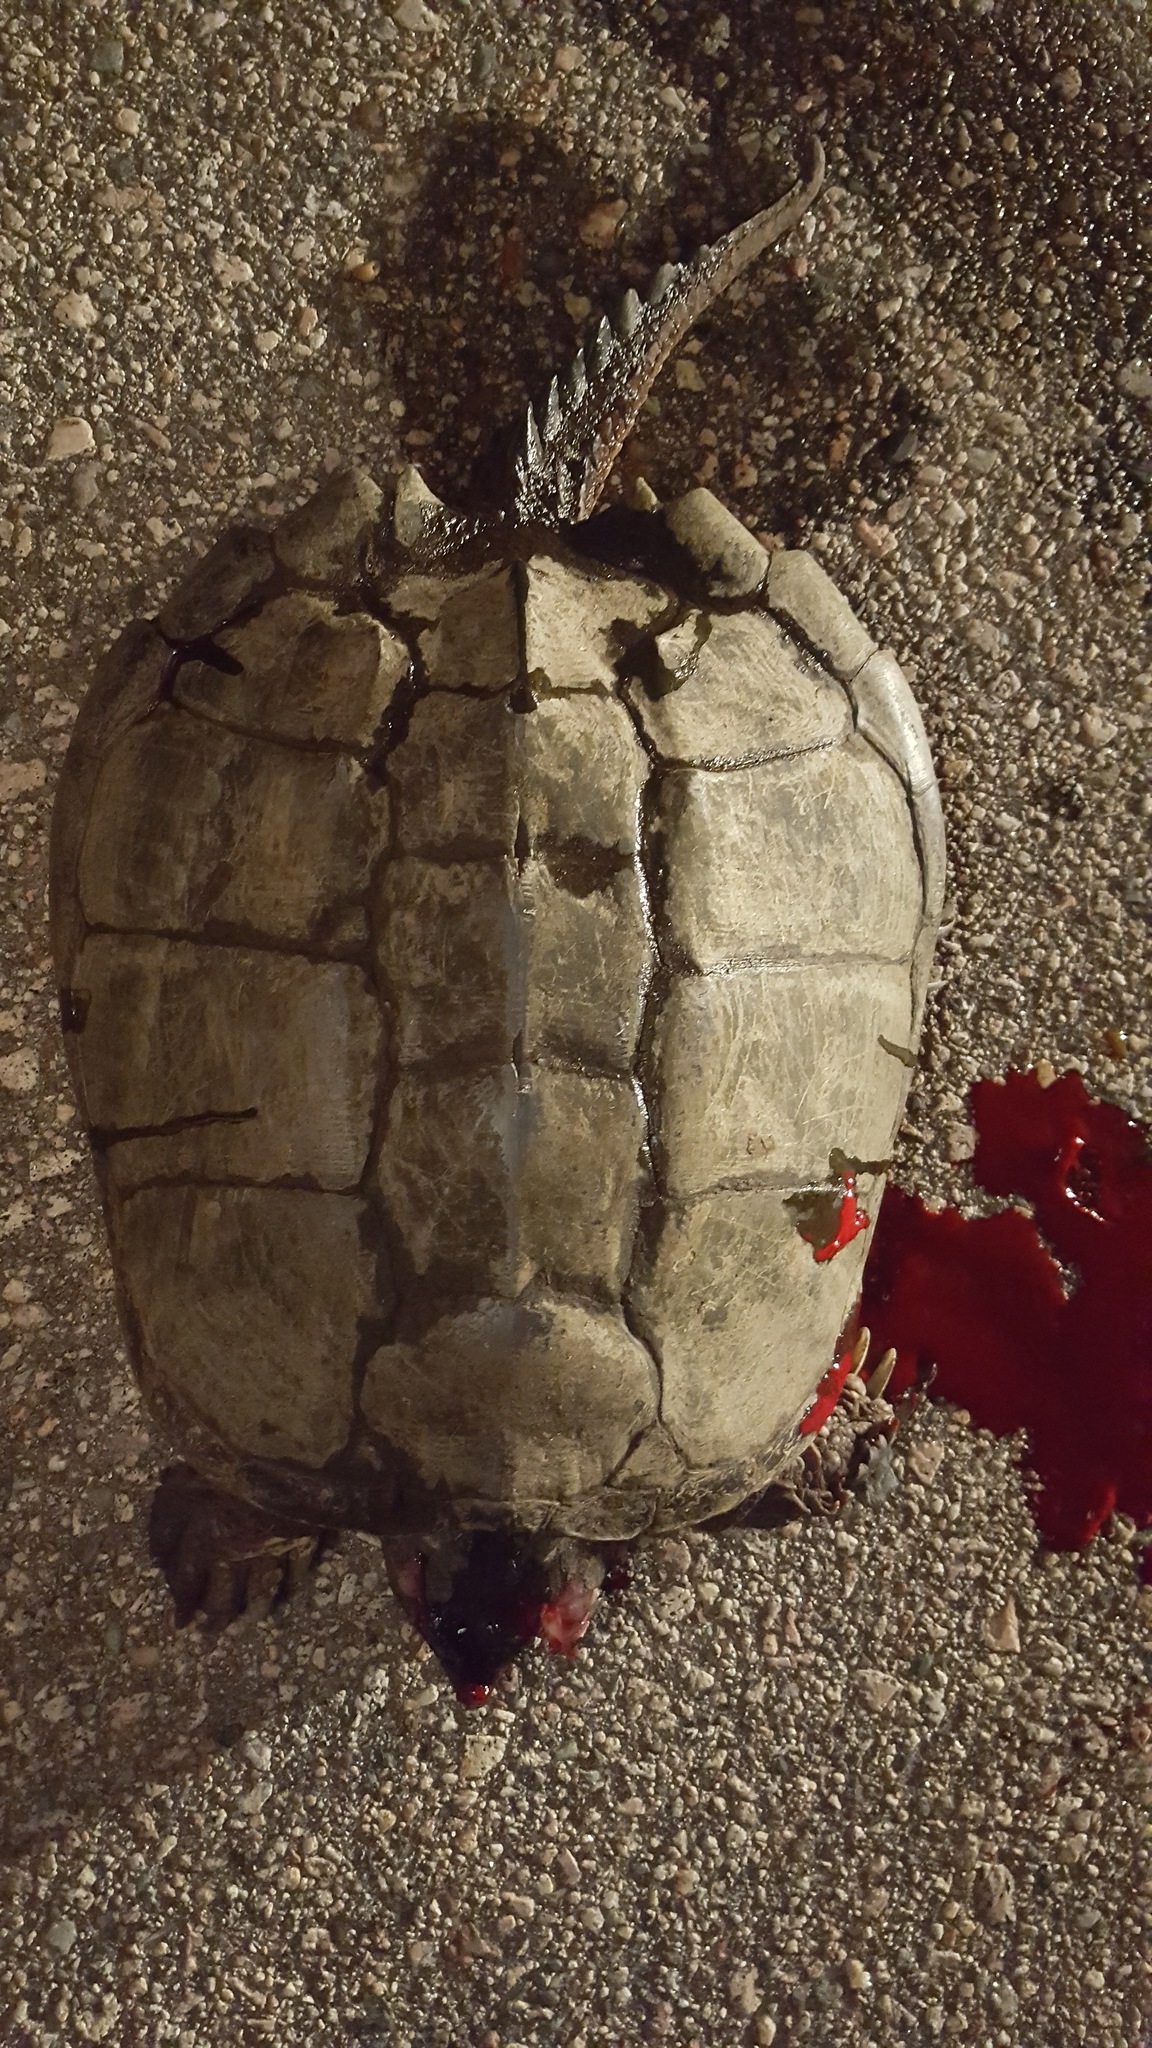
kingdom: Animalia
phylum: Chordata
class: Testudines
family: Chelydridae
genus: Chelydra
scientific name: Chelydra serpentina
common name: Common snapping turtle
